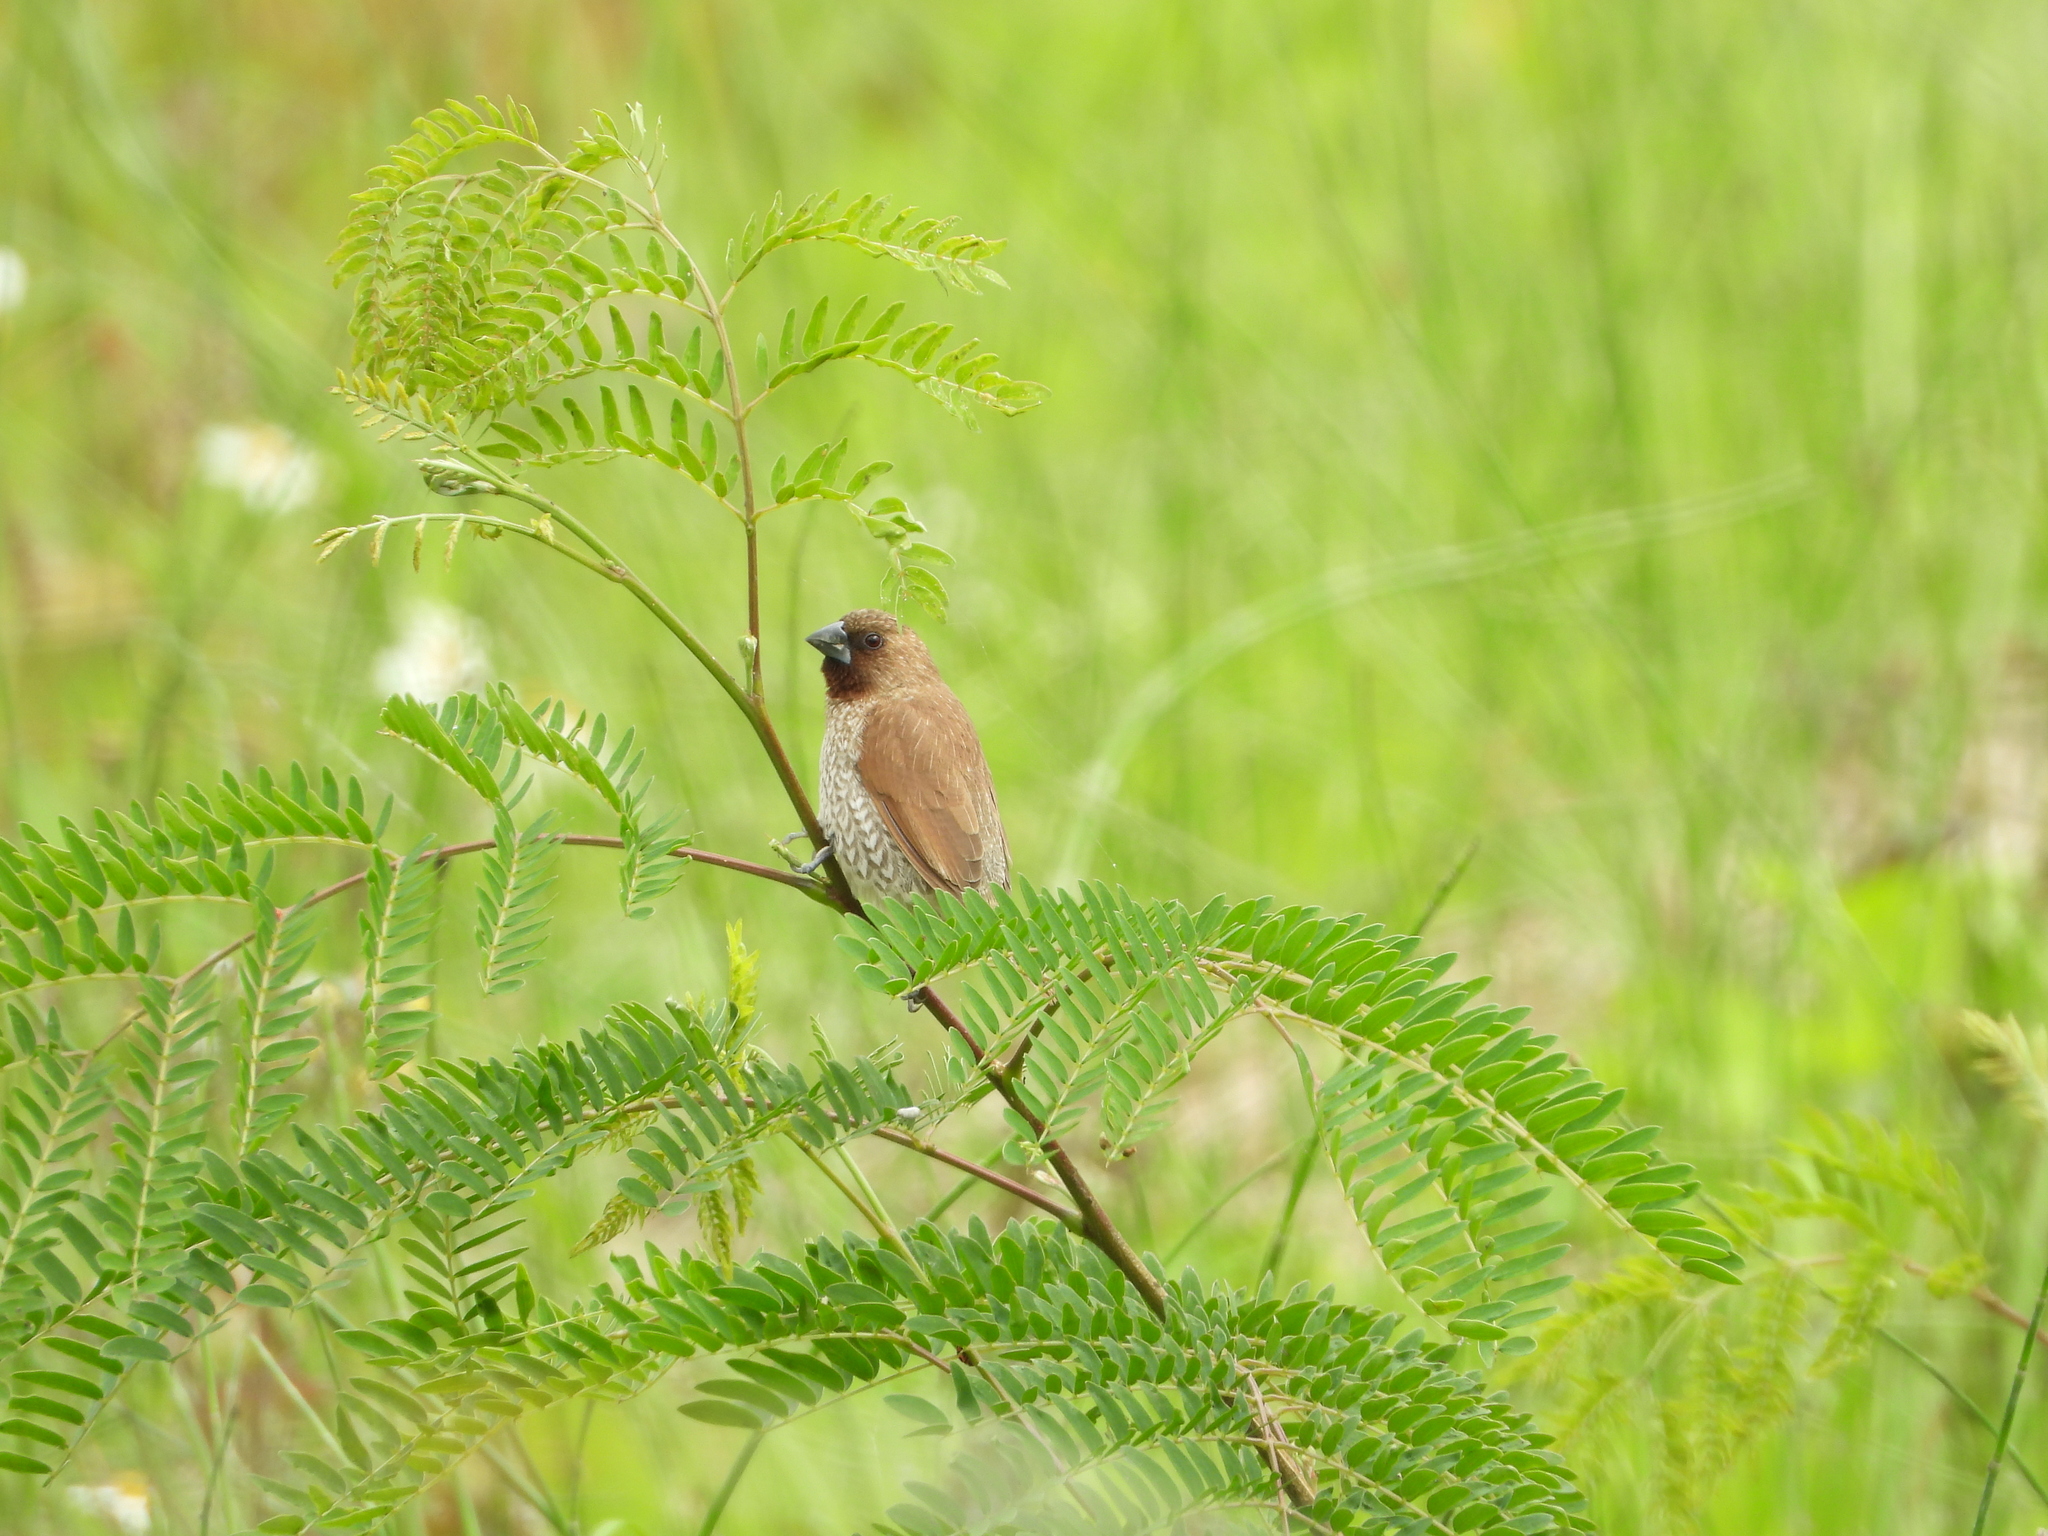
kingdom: Animalia
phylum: Chordata
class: Aves
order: Passeriformes
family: Estrildidae
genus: Lonchura
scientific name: Lonchura punctulata
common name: Scaly-breasted munia
